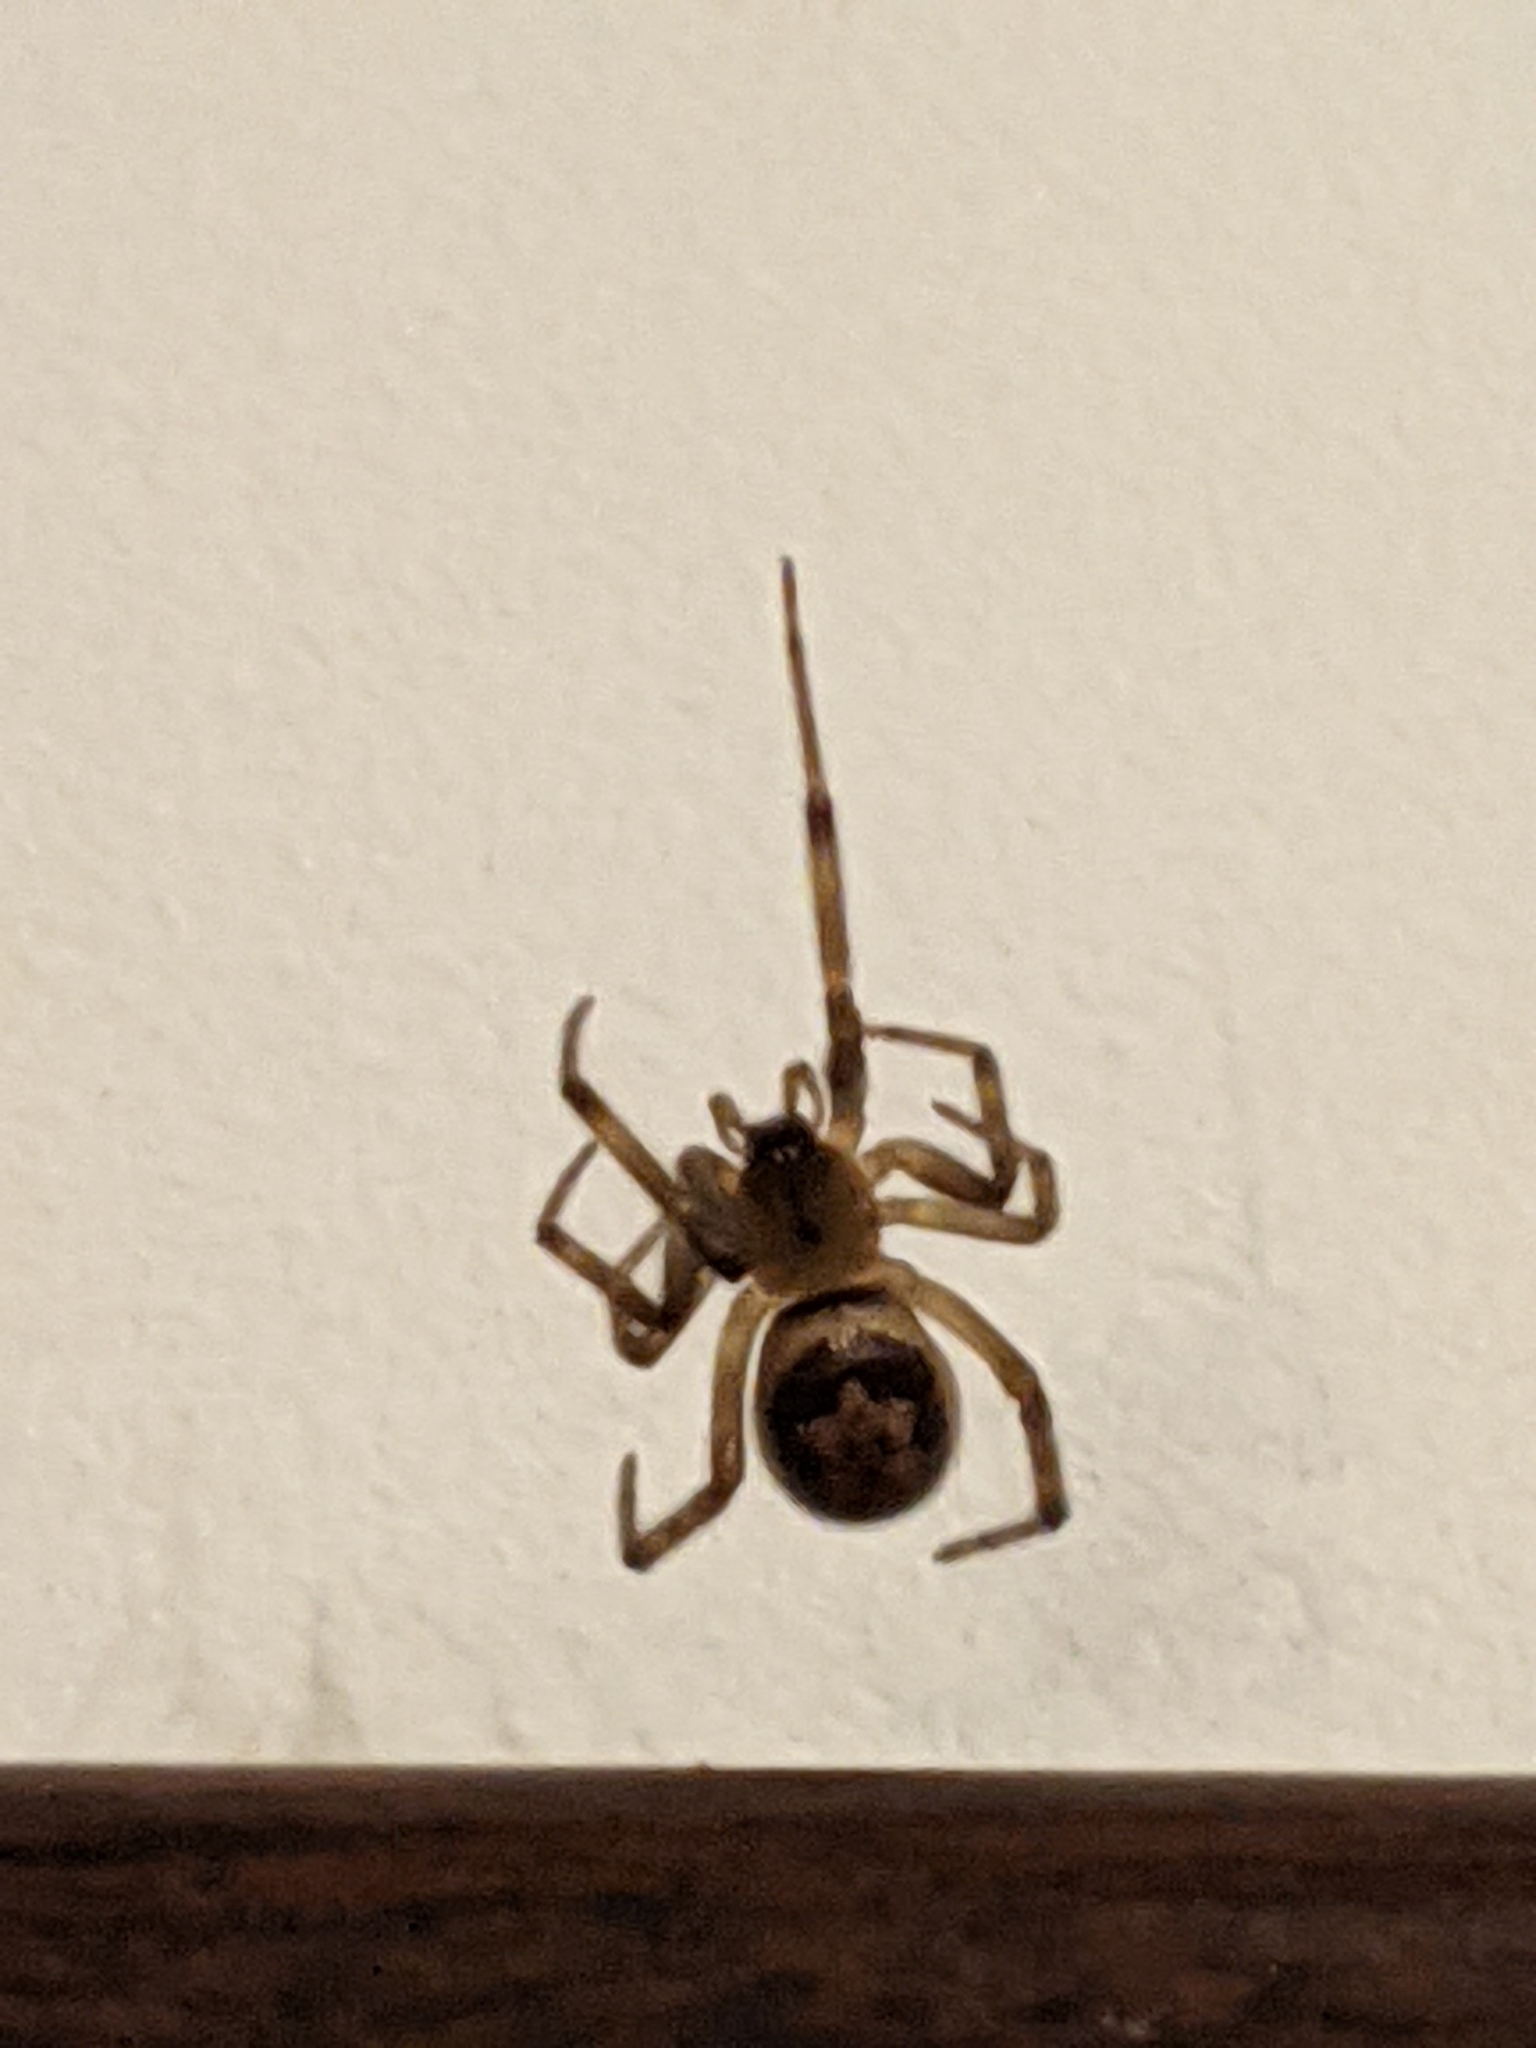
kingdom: Animalia
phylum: Arthropoda
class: Arachnida
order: Araneae
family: Theridiidae
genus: Steatoda
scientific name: Steatoda nobilis
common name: Cobweb weaver
